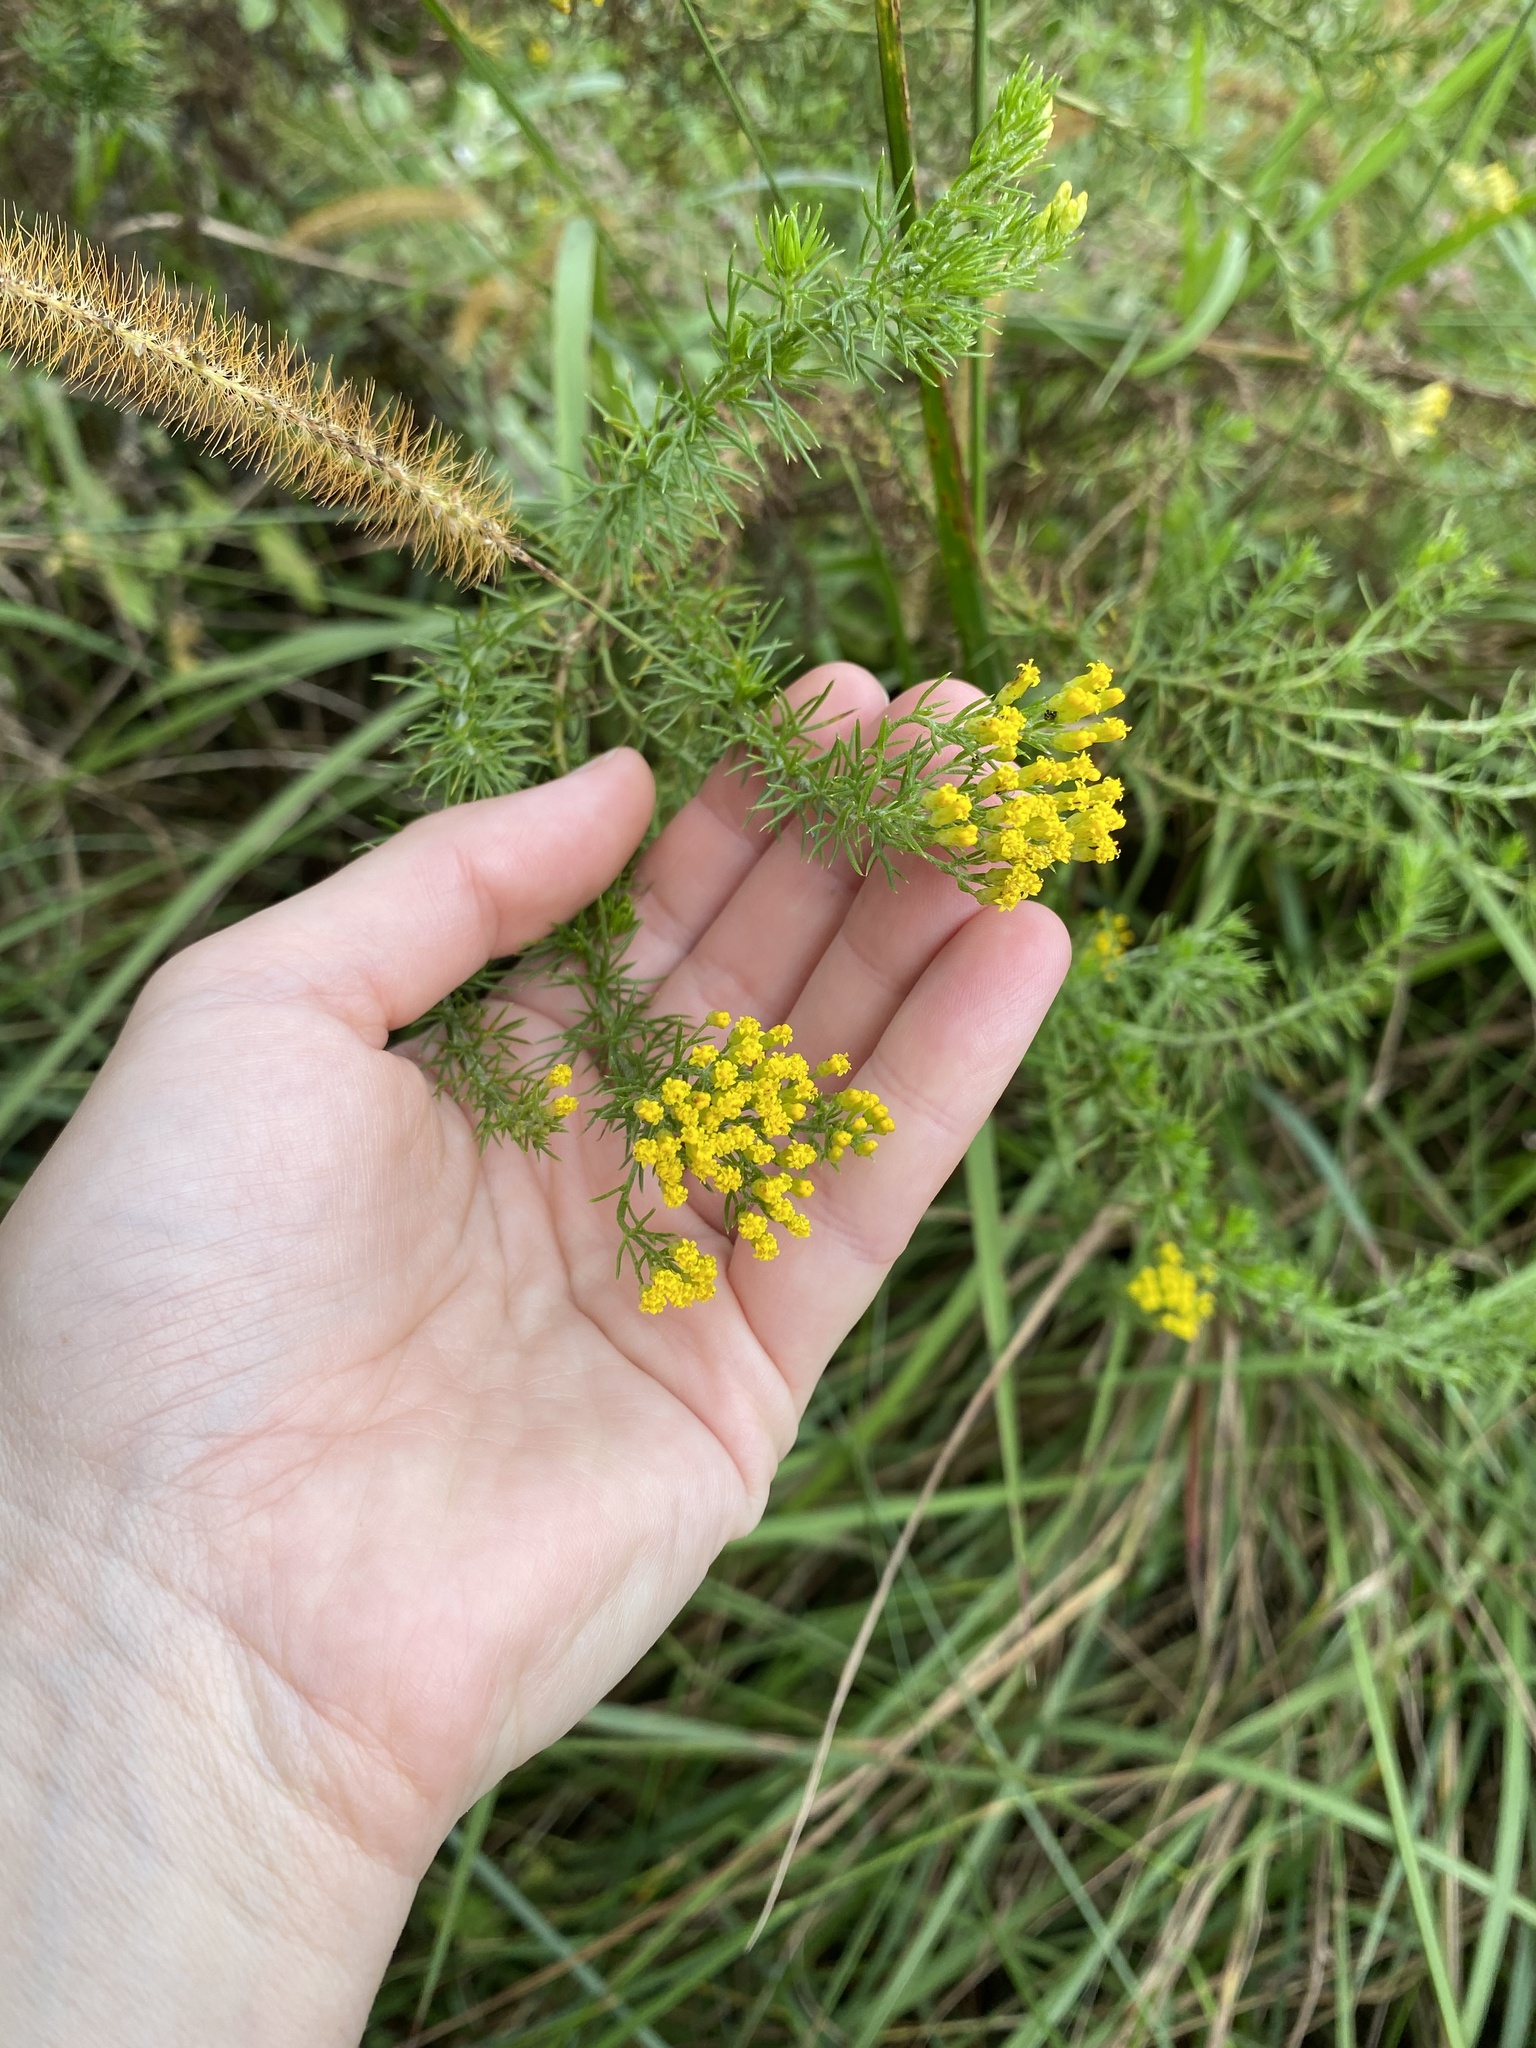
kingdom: Plantae
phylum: Tracheophyta
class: Magnoliopsida
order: Asterales
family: Asteraceae
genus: Phymaspermum
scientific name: Phymaspermum acerosum
